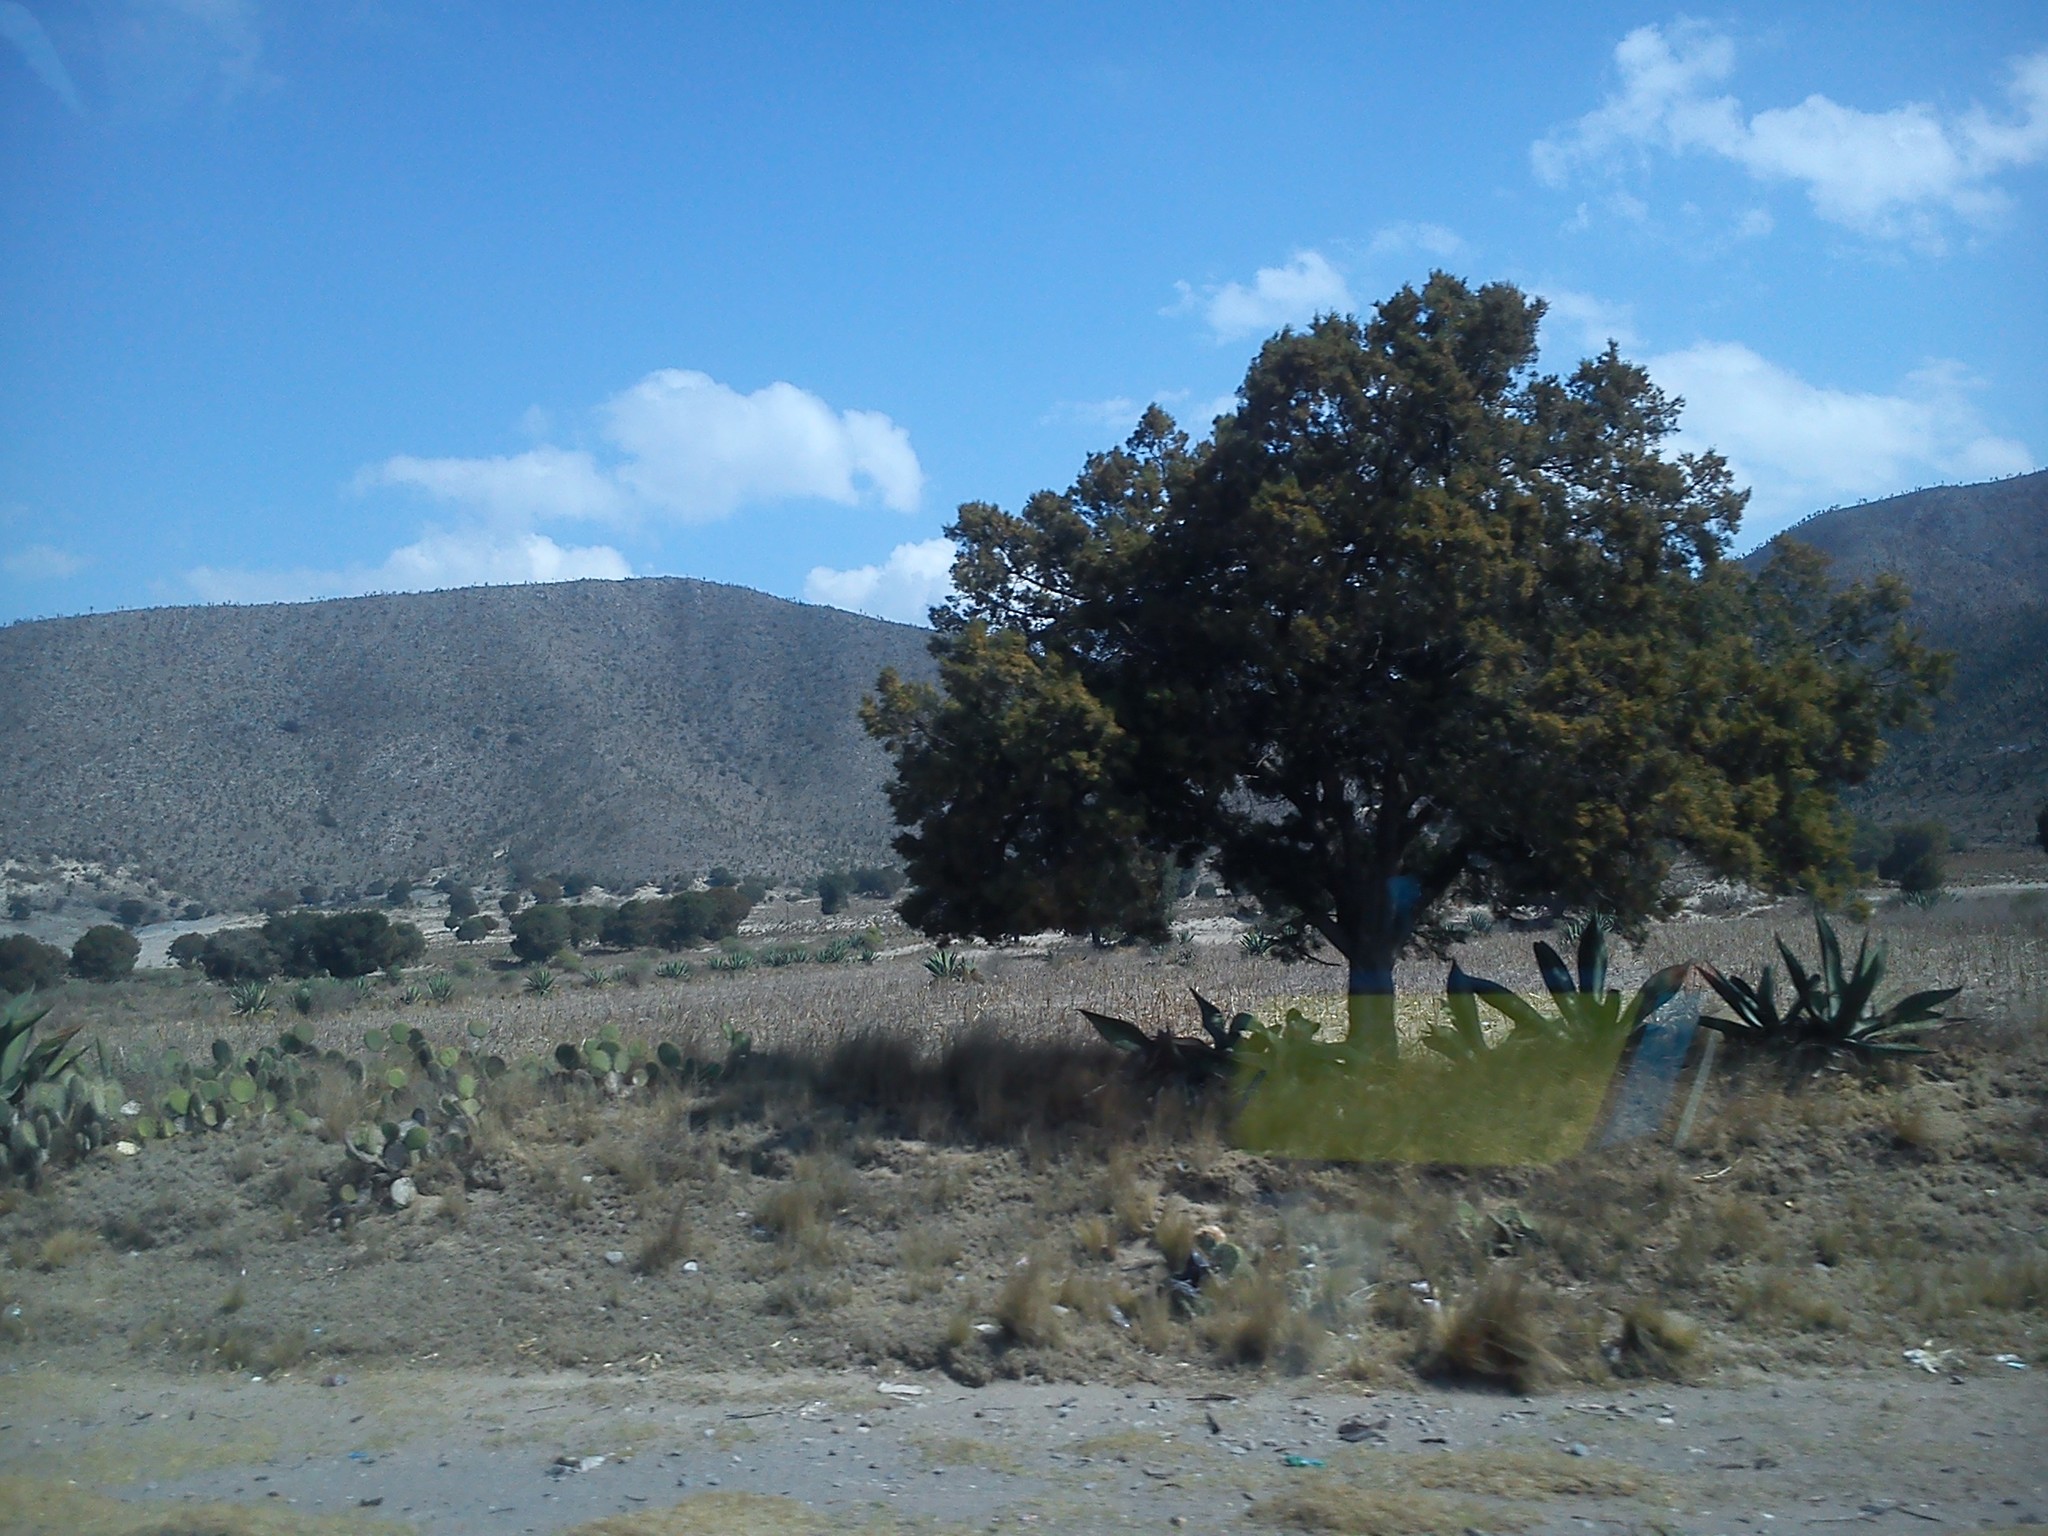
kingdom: Plantae
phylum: Tracheophyta
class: Pinopsida
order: Pinales
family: Cupressaceae
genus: Juniperus
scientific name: Juniperus deppeana
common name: Alligator juniper
